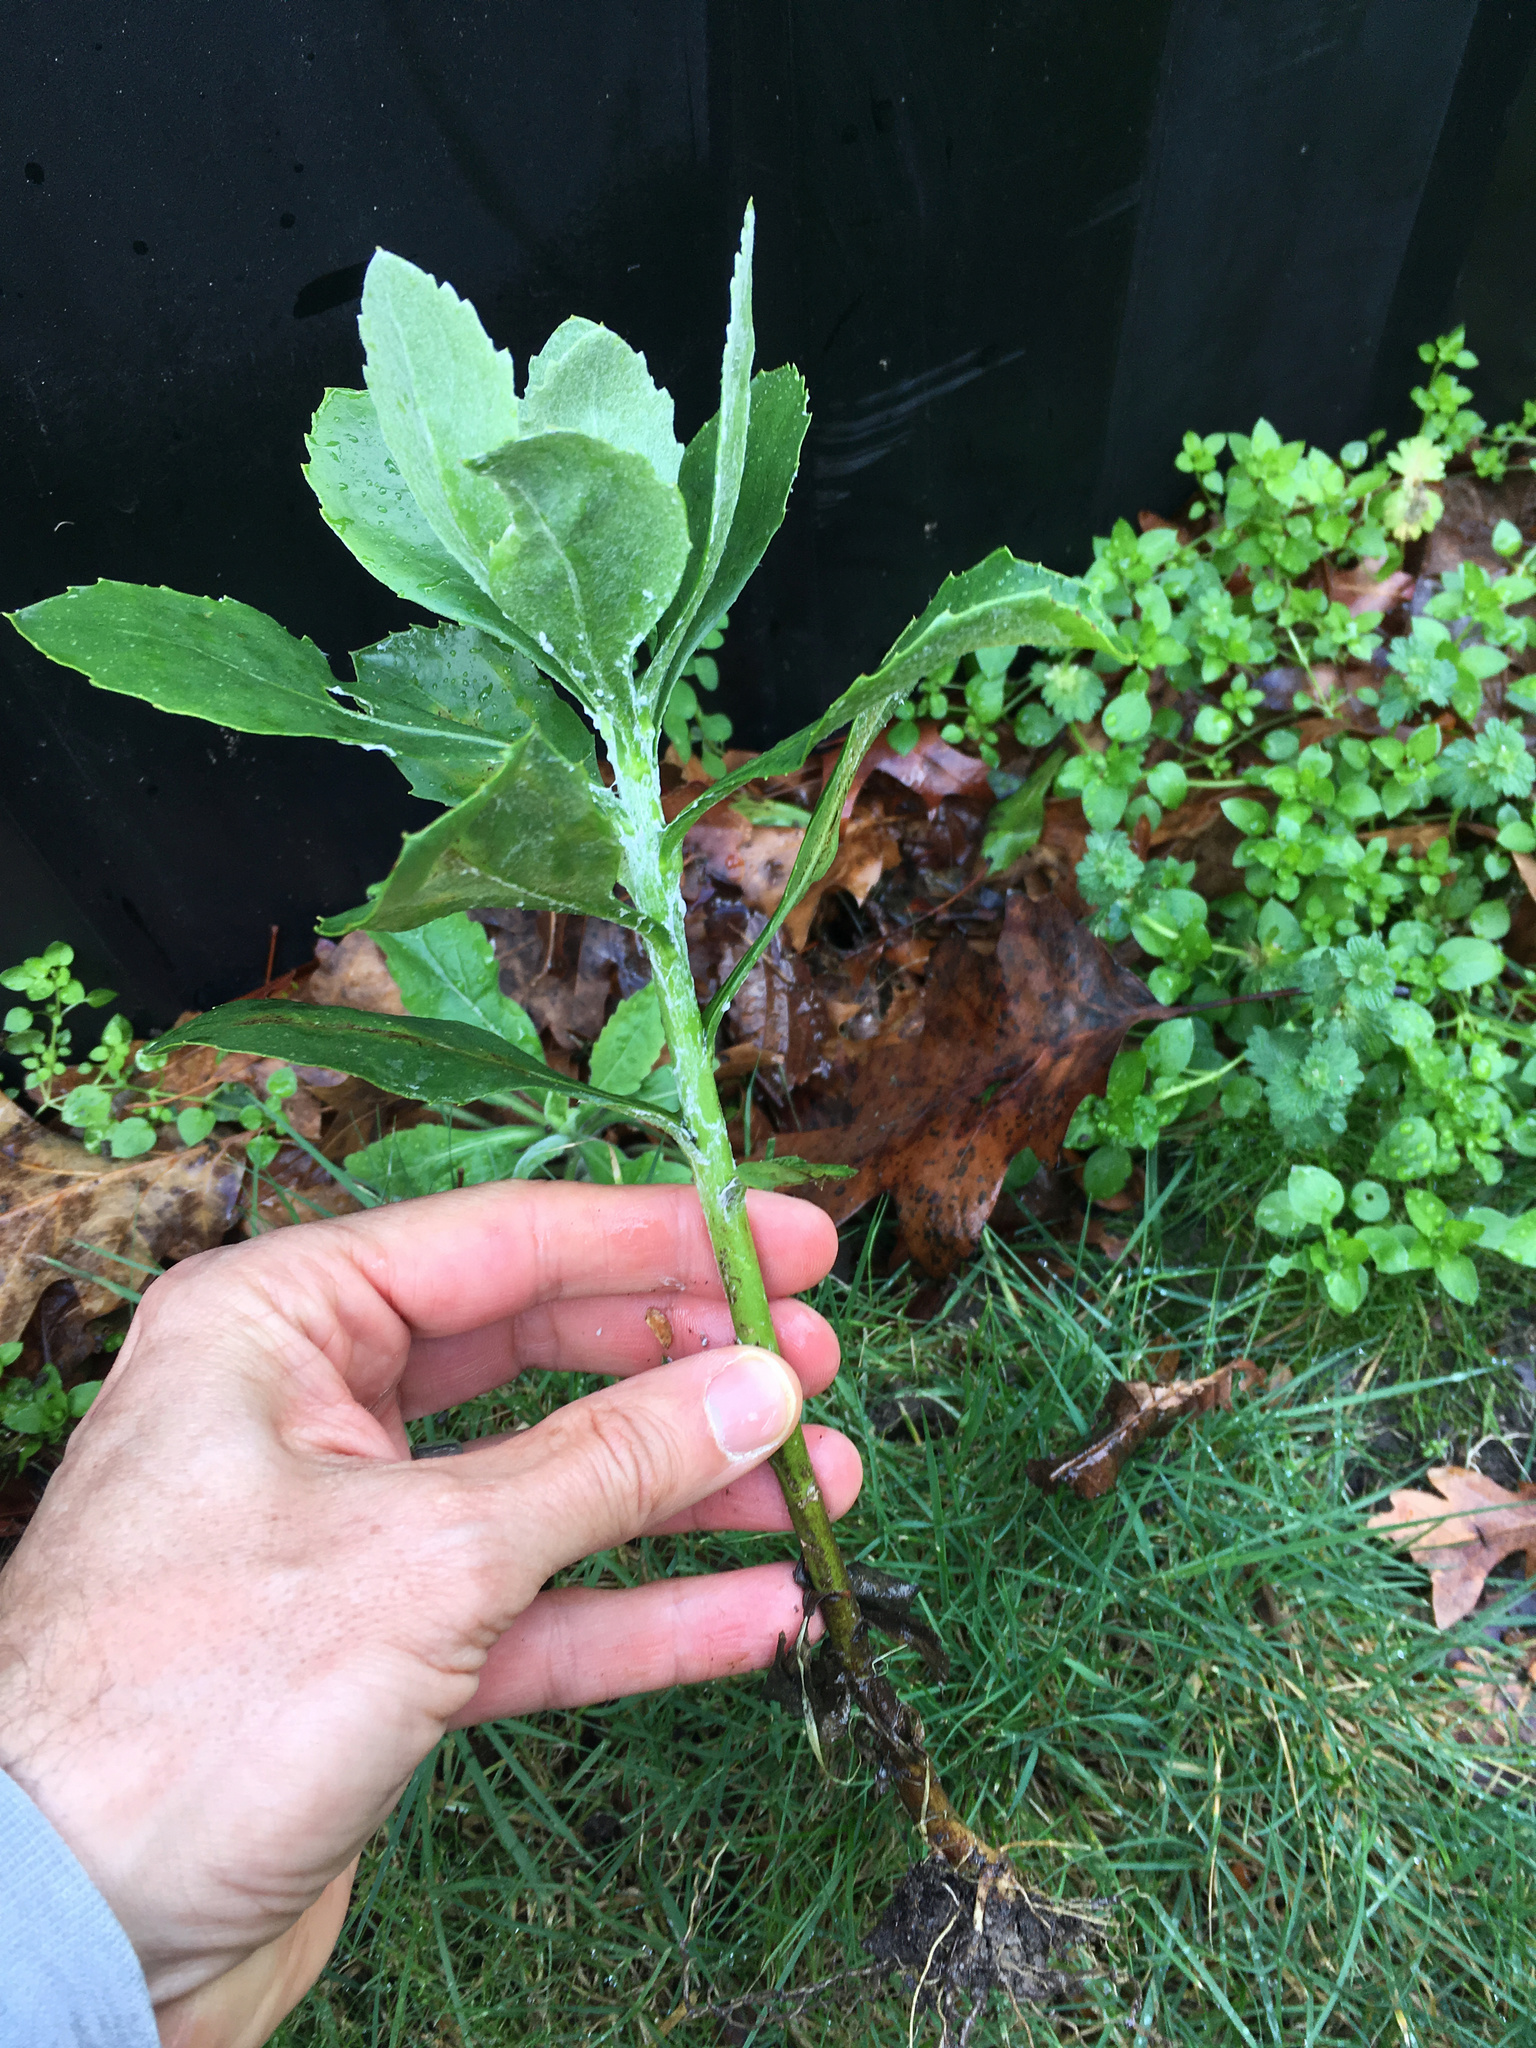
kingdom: Plantae
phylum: Tracheophyta
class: Magnoliopsida
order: Asterales
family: Asteraceae
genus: Osteospermum
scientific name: Osteospermum moniliferum
